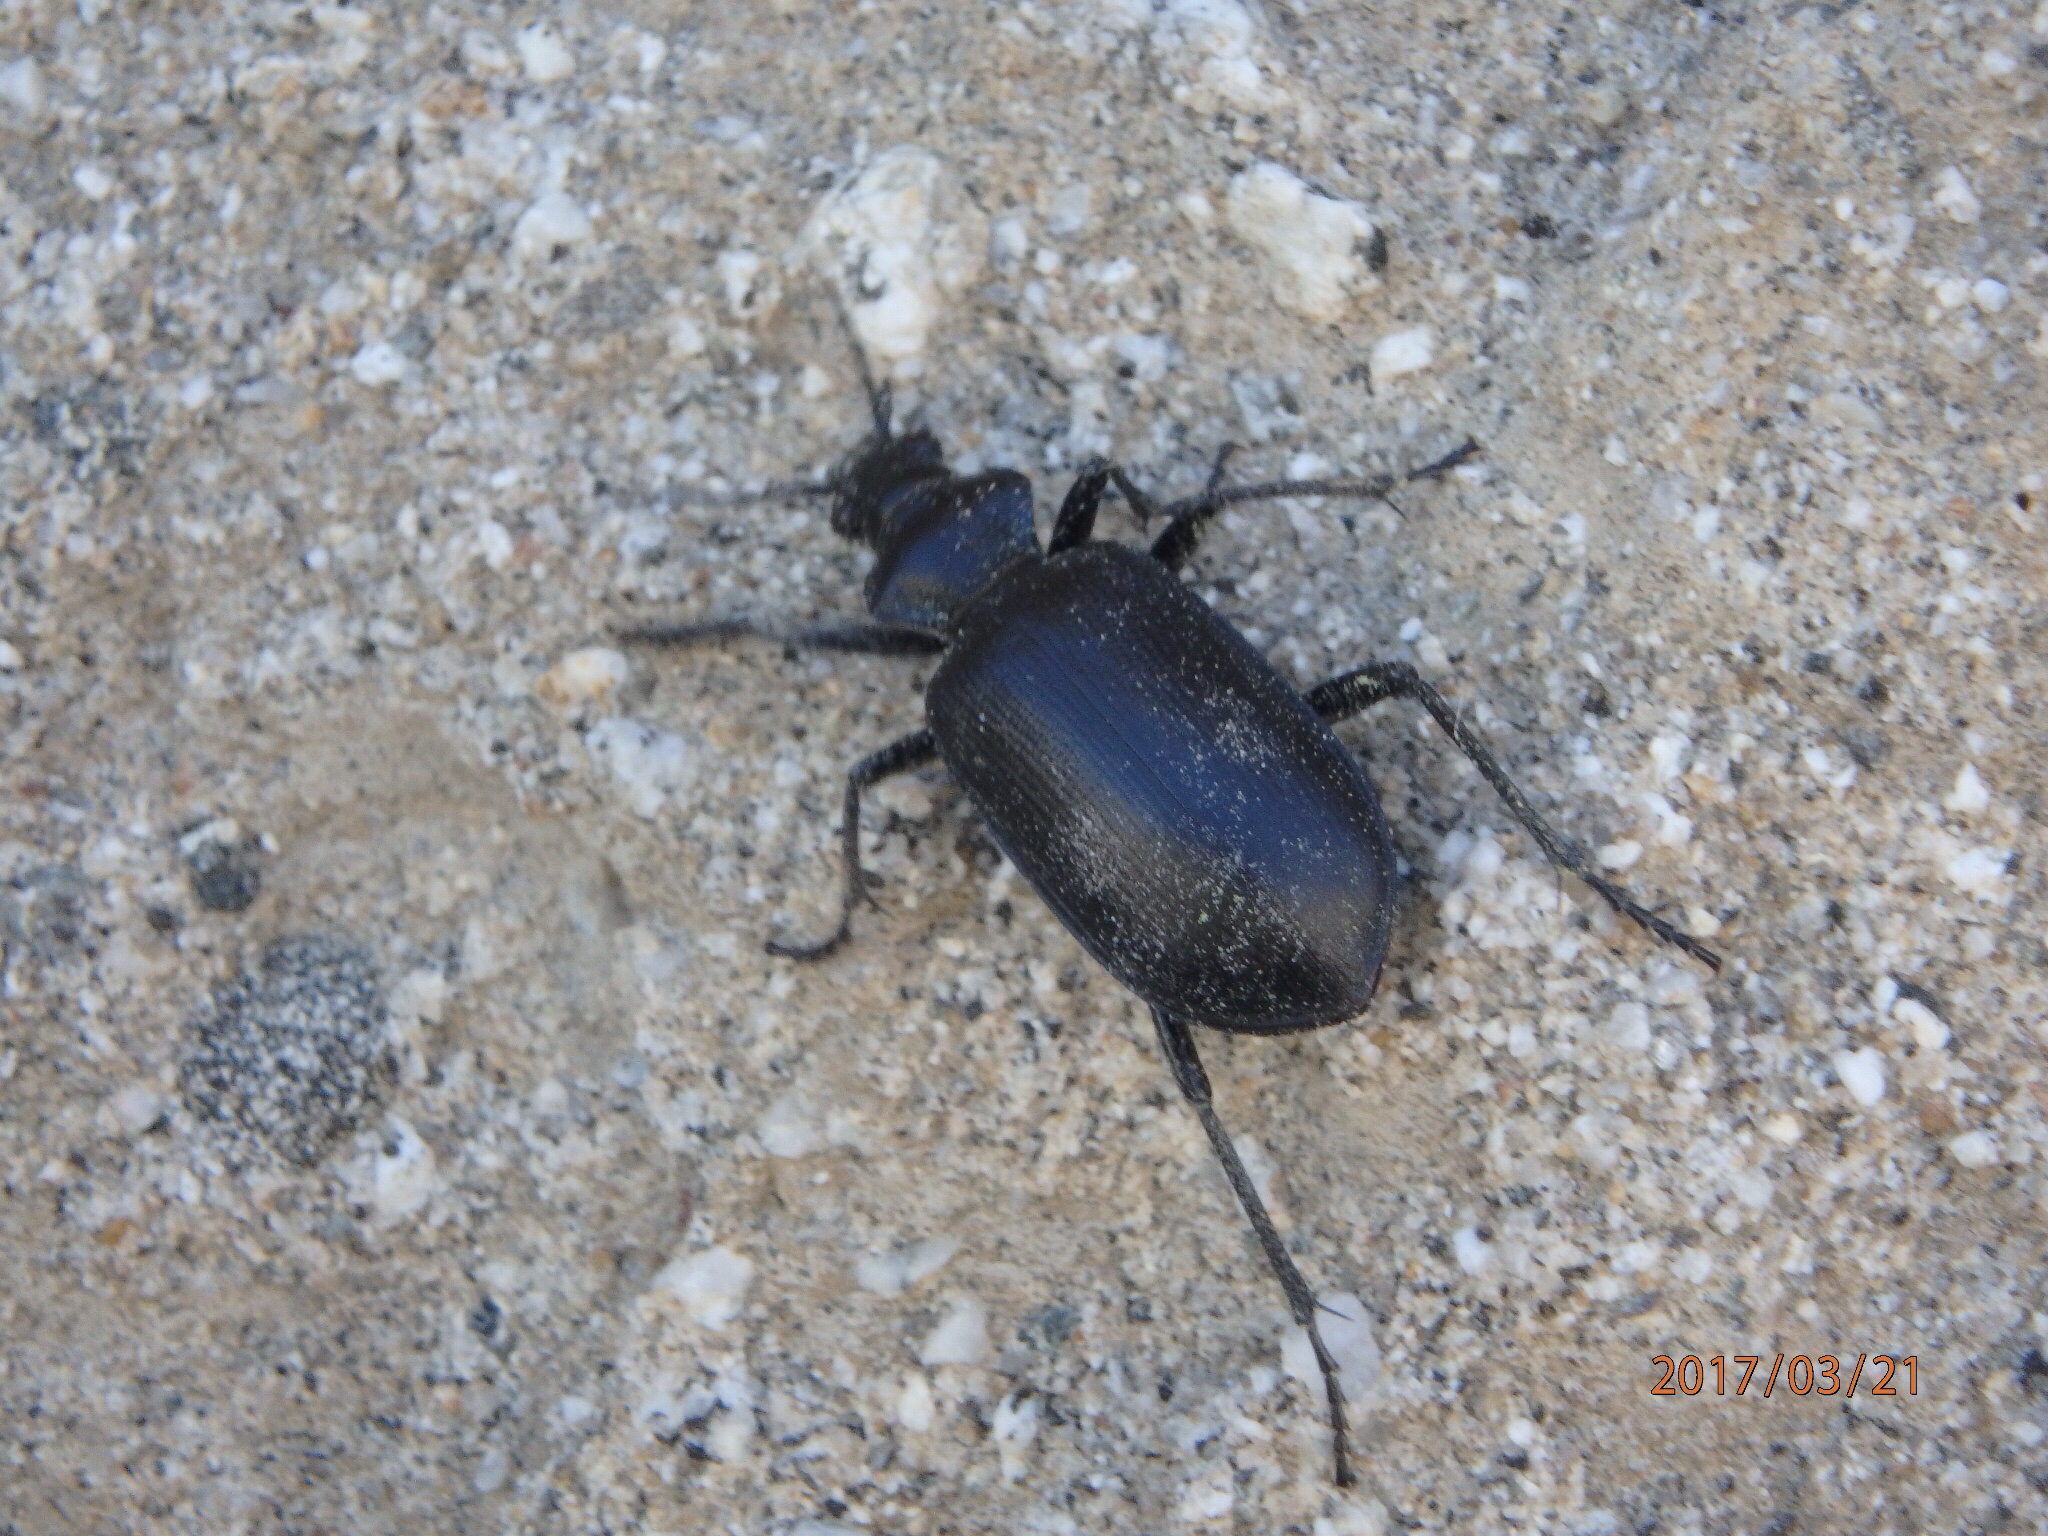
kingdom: Animalia
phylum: Arthropoda
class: Insecta
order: Coleoptera
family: Carabidae
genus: Calosoma
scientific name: Calosoma peregrinator
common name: Ground beetle
